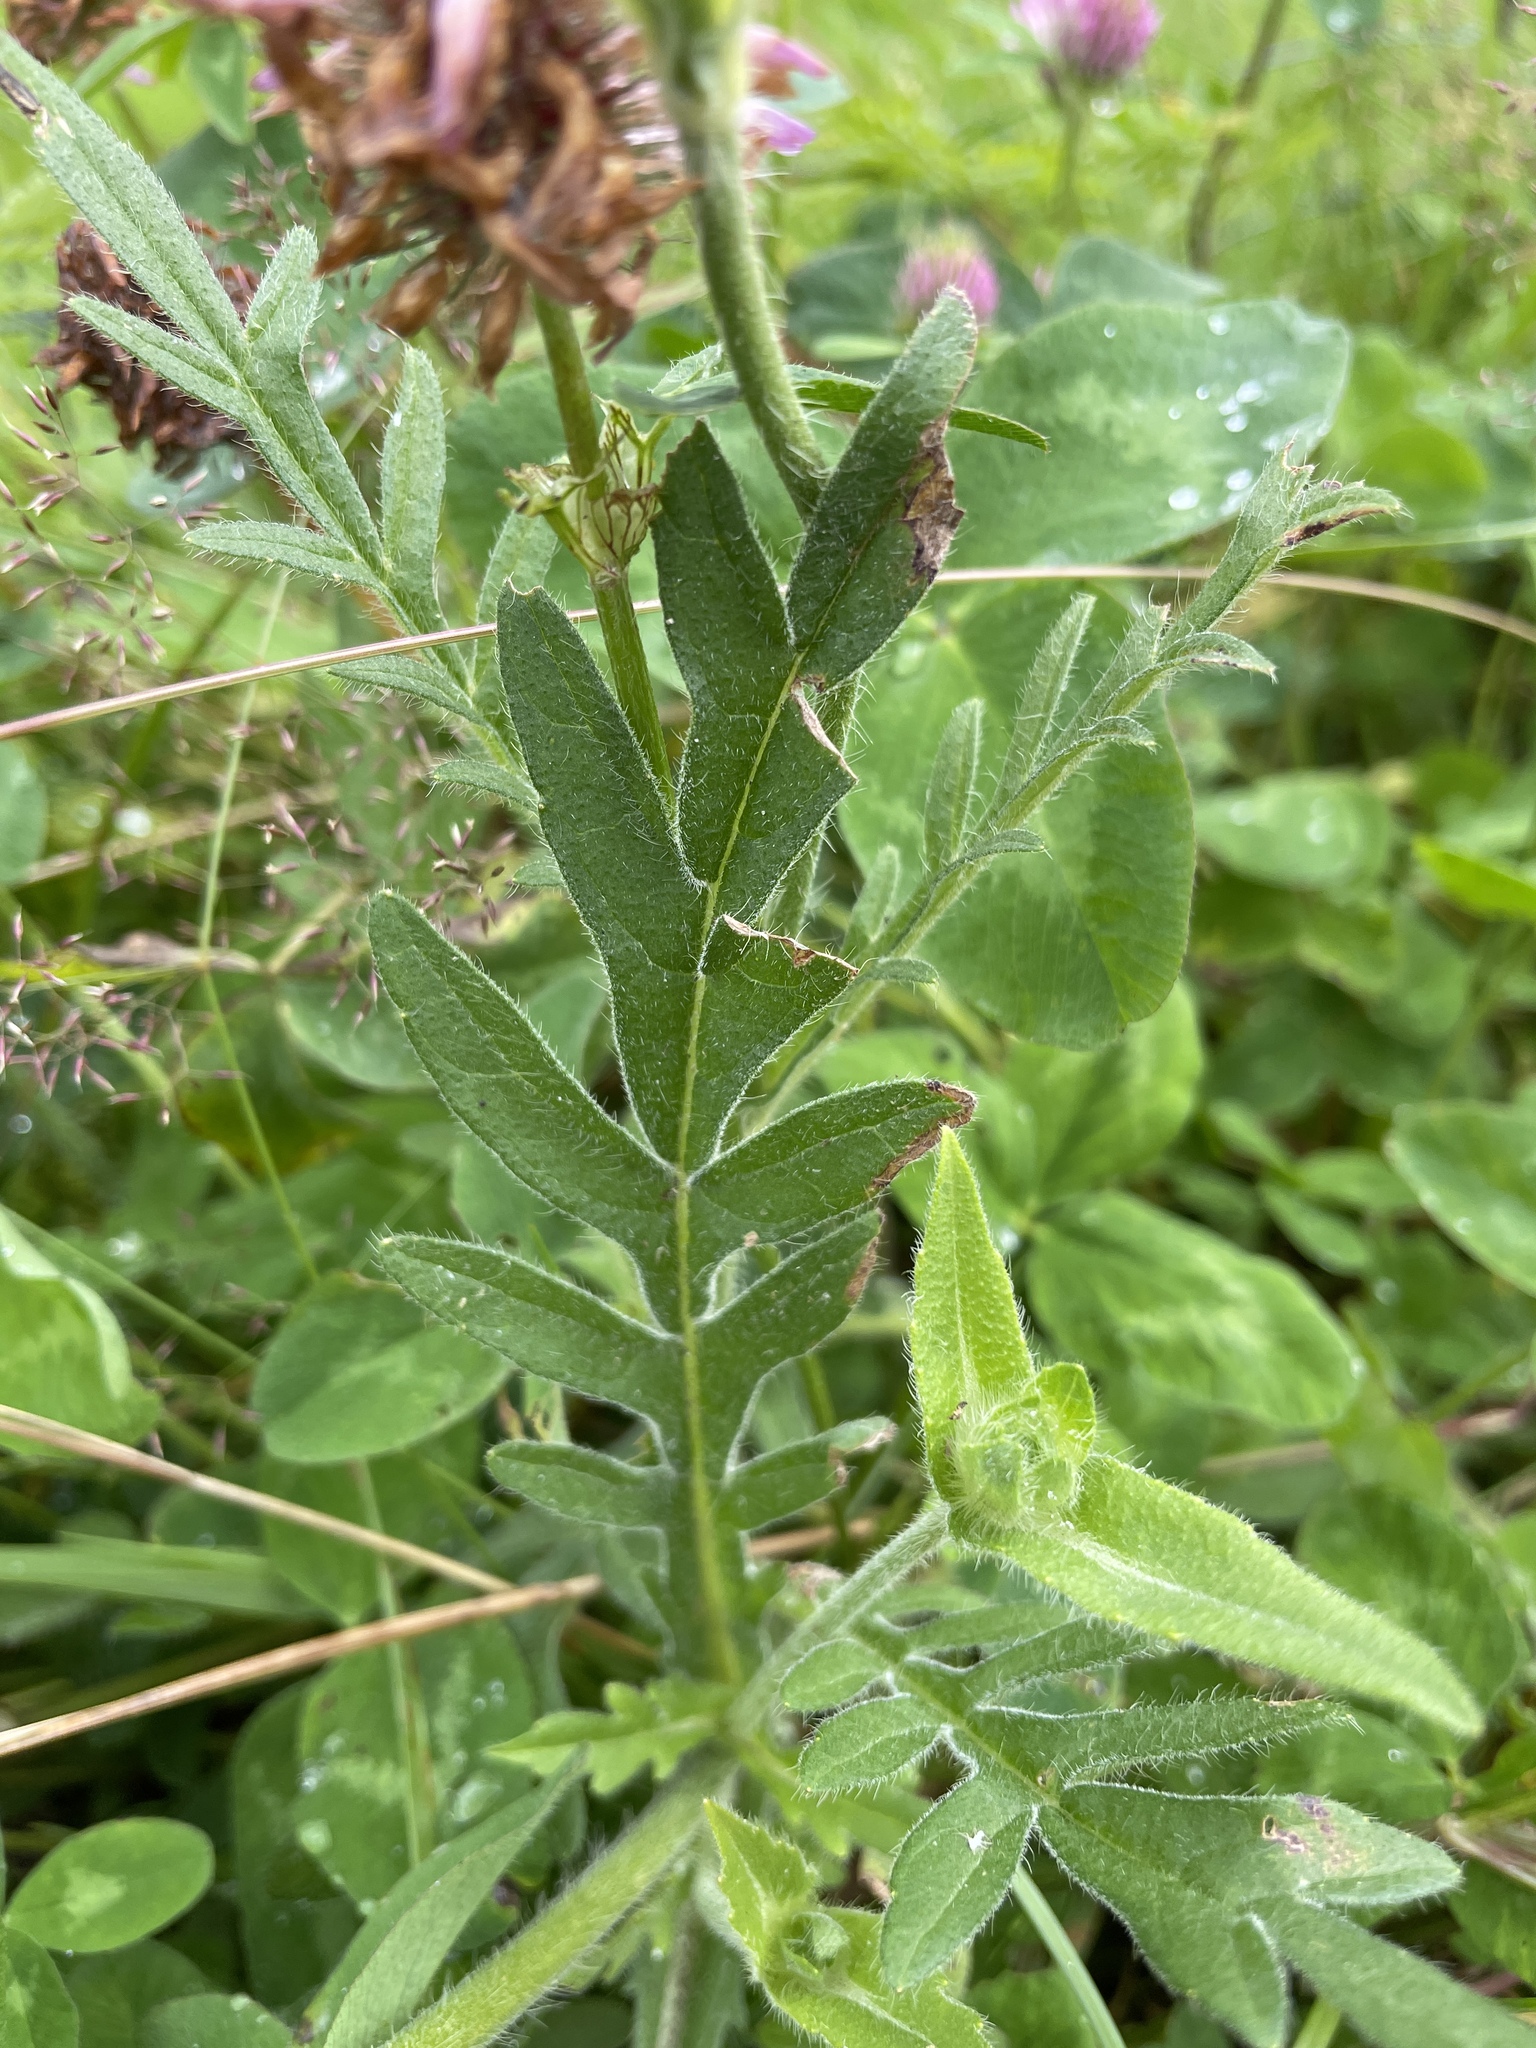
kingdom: Plantae
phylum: Tracheophyta
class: Magnoliopsida
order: Dipsacales
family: Caprifoliaceae
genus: Knautia
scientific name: Knautia arvensis
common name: Field scabiosa
